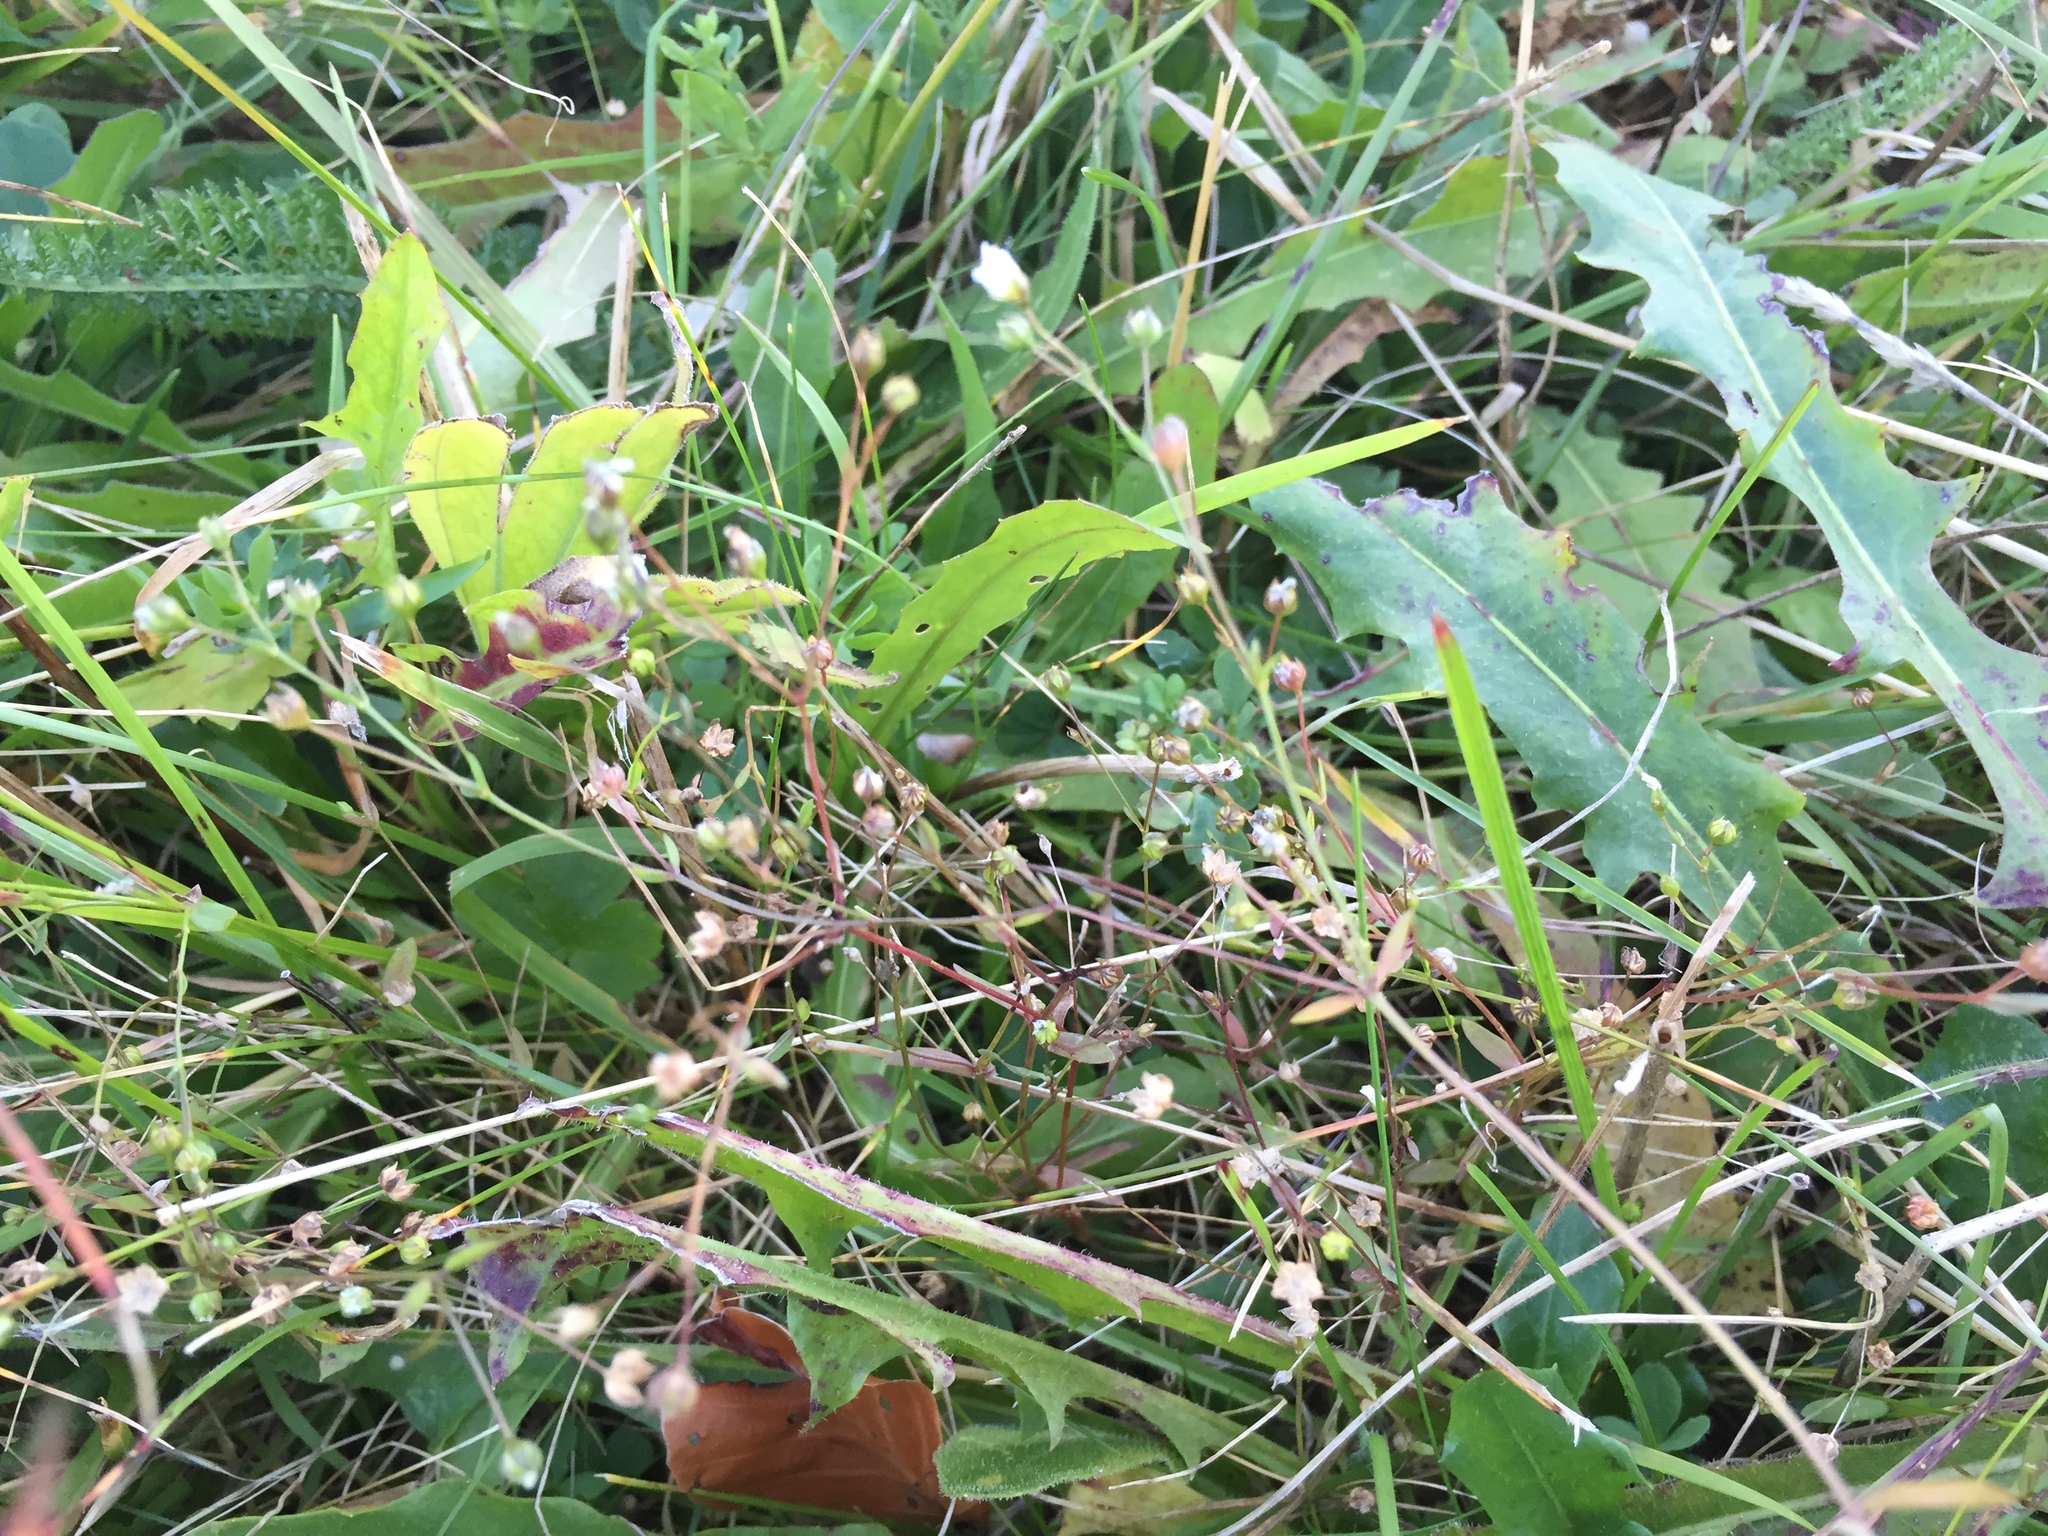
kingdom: Plantae
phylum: Tracheophyta
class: Magnoliopsida
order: Malpighiales
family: Linaceae
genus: Linum
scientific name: Linum catharticum
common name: Fairy flax
